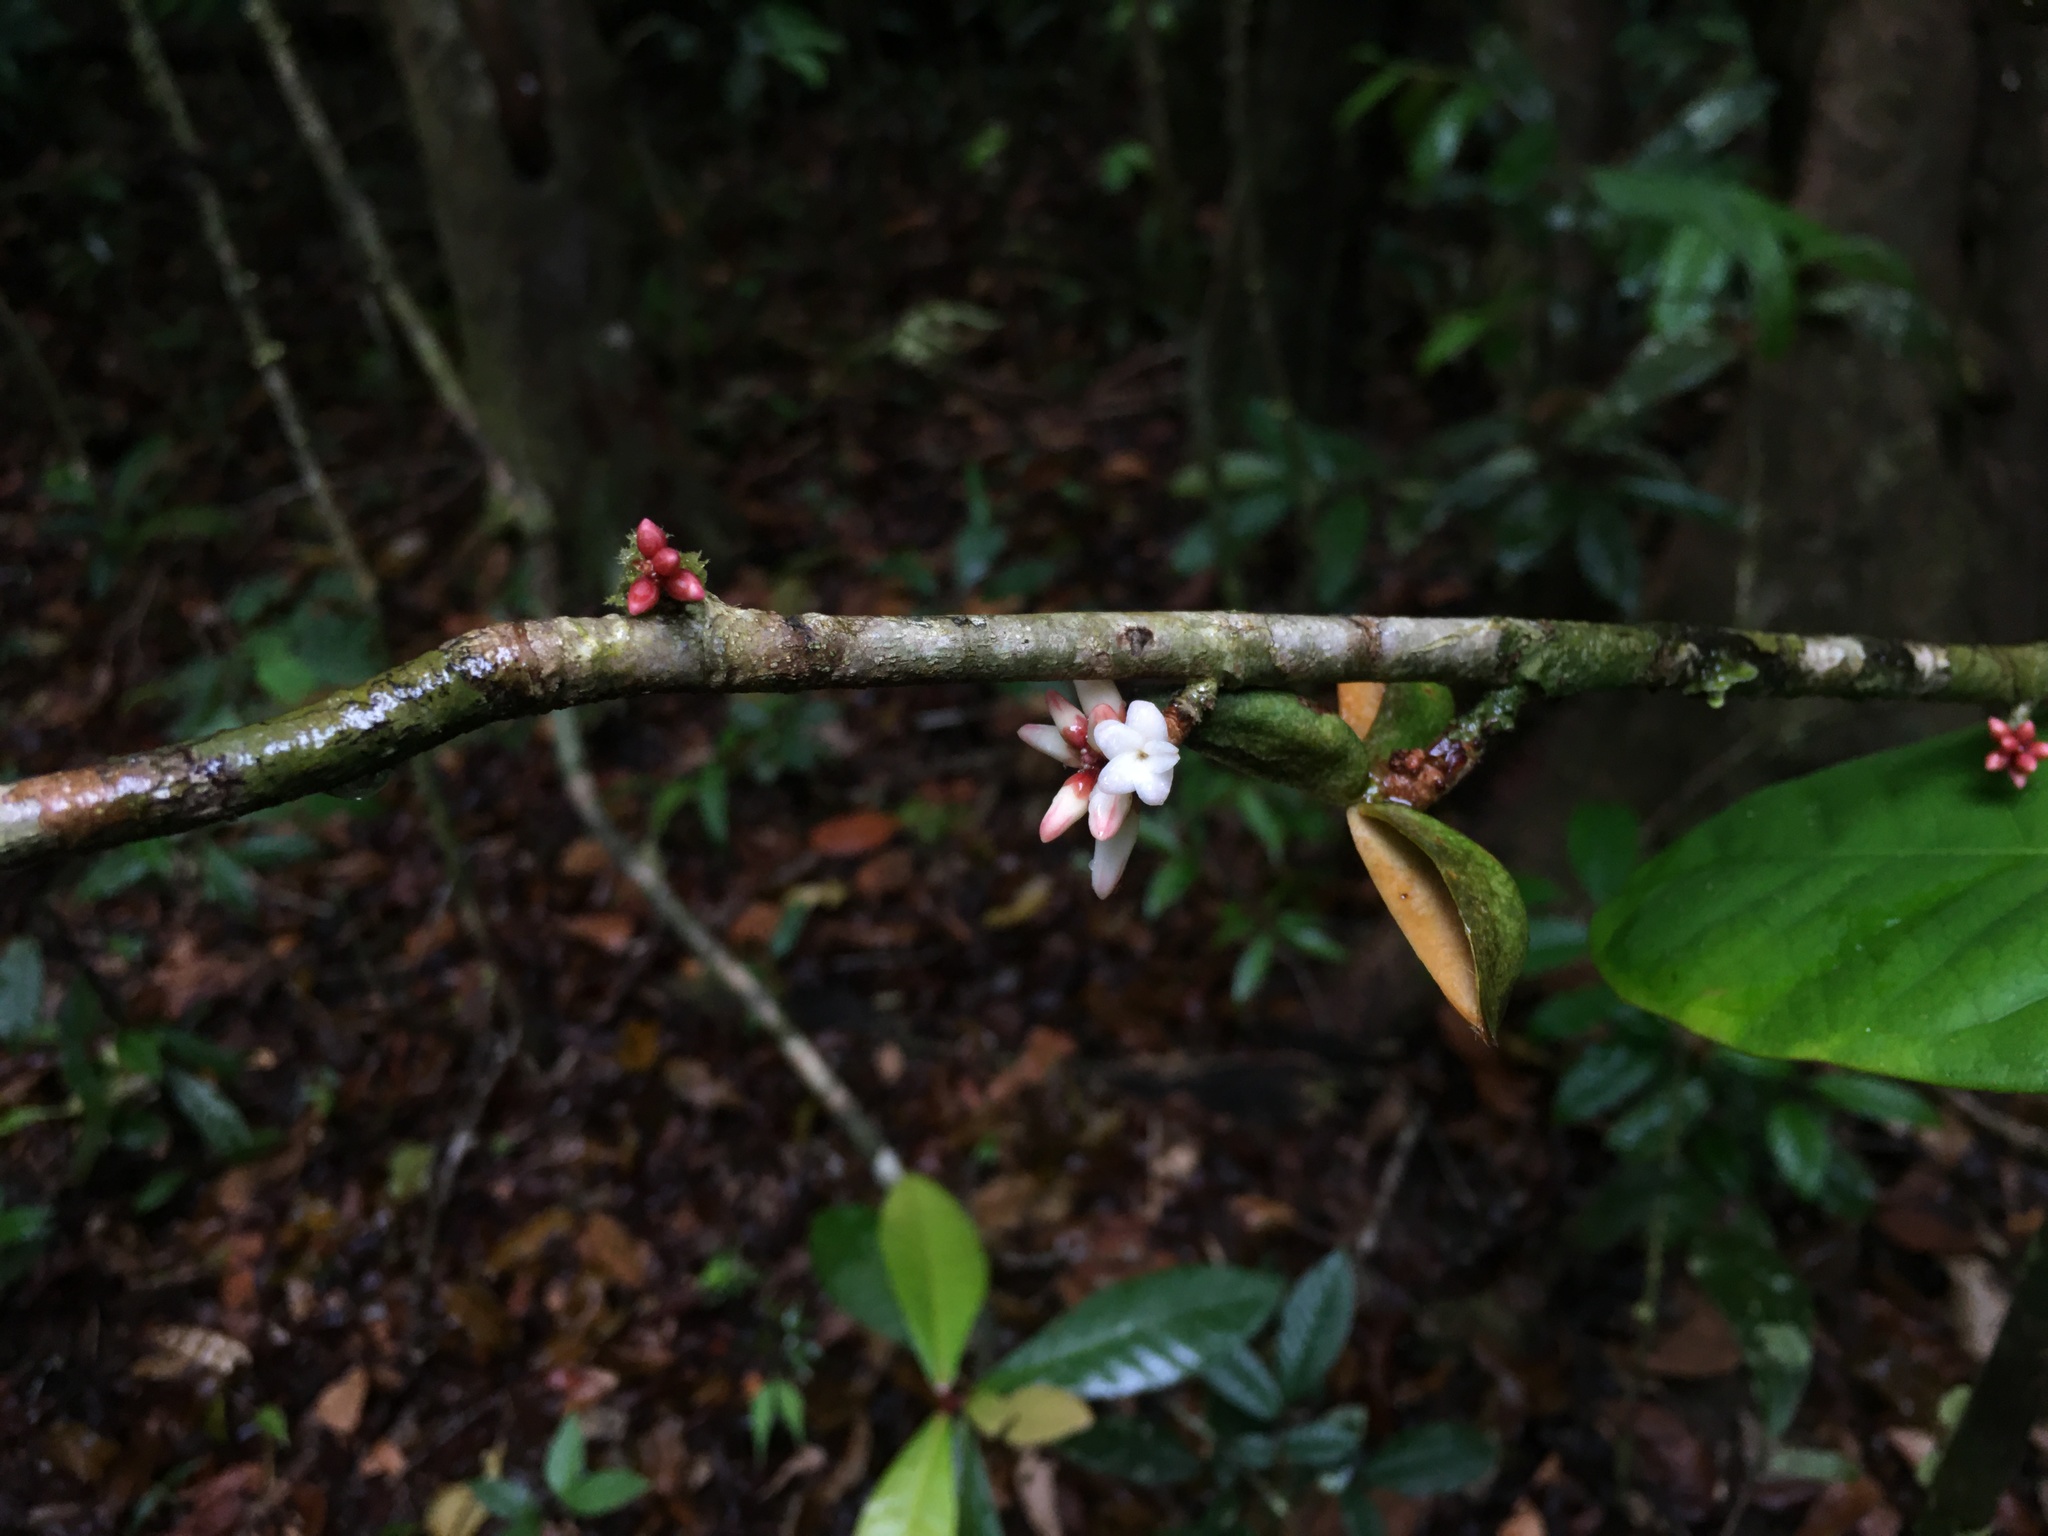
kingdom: Plantae
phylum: Tracheophyta
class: Magnoliopsida
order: Malpighiales
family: Violaceae
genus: Paypayrola
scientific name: Paypayrola blanchetiana
